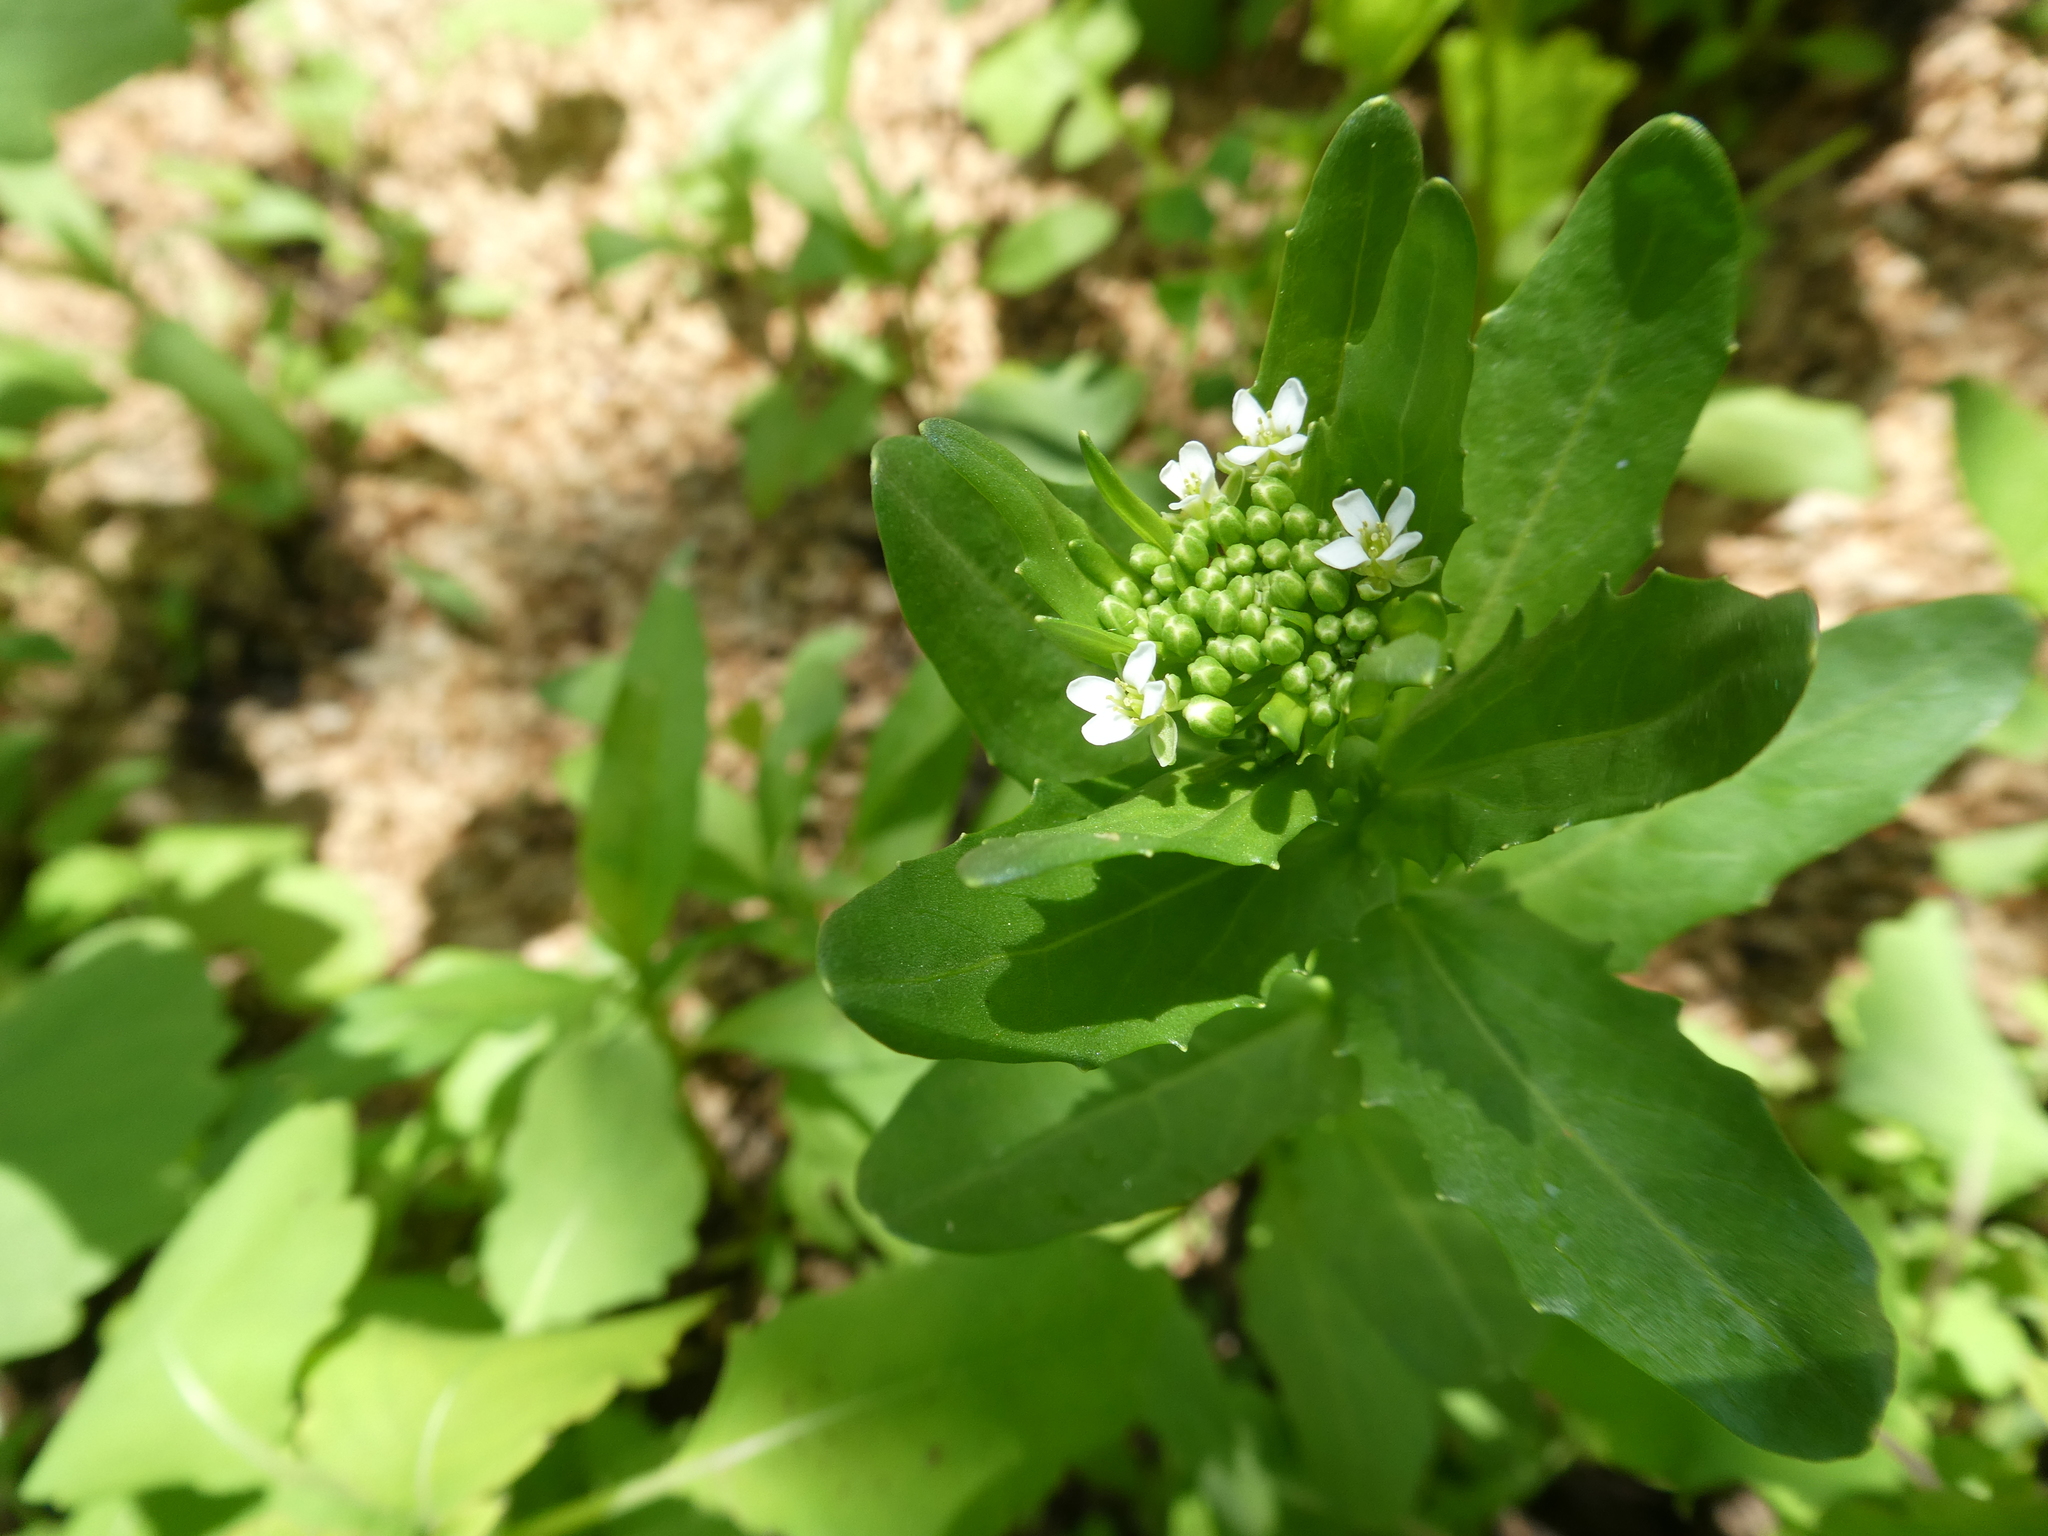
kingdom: Plantae
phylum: Tracheophyta
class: Magnoliopsida
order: Brassicales
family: Brassicaceae
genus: Thlaspi
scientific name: Thlaspi arvense
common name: Field pennycress
